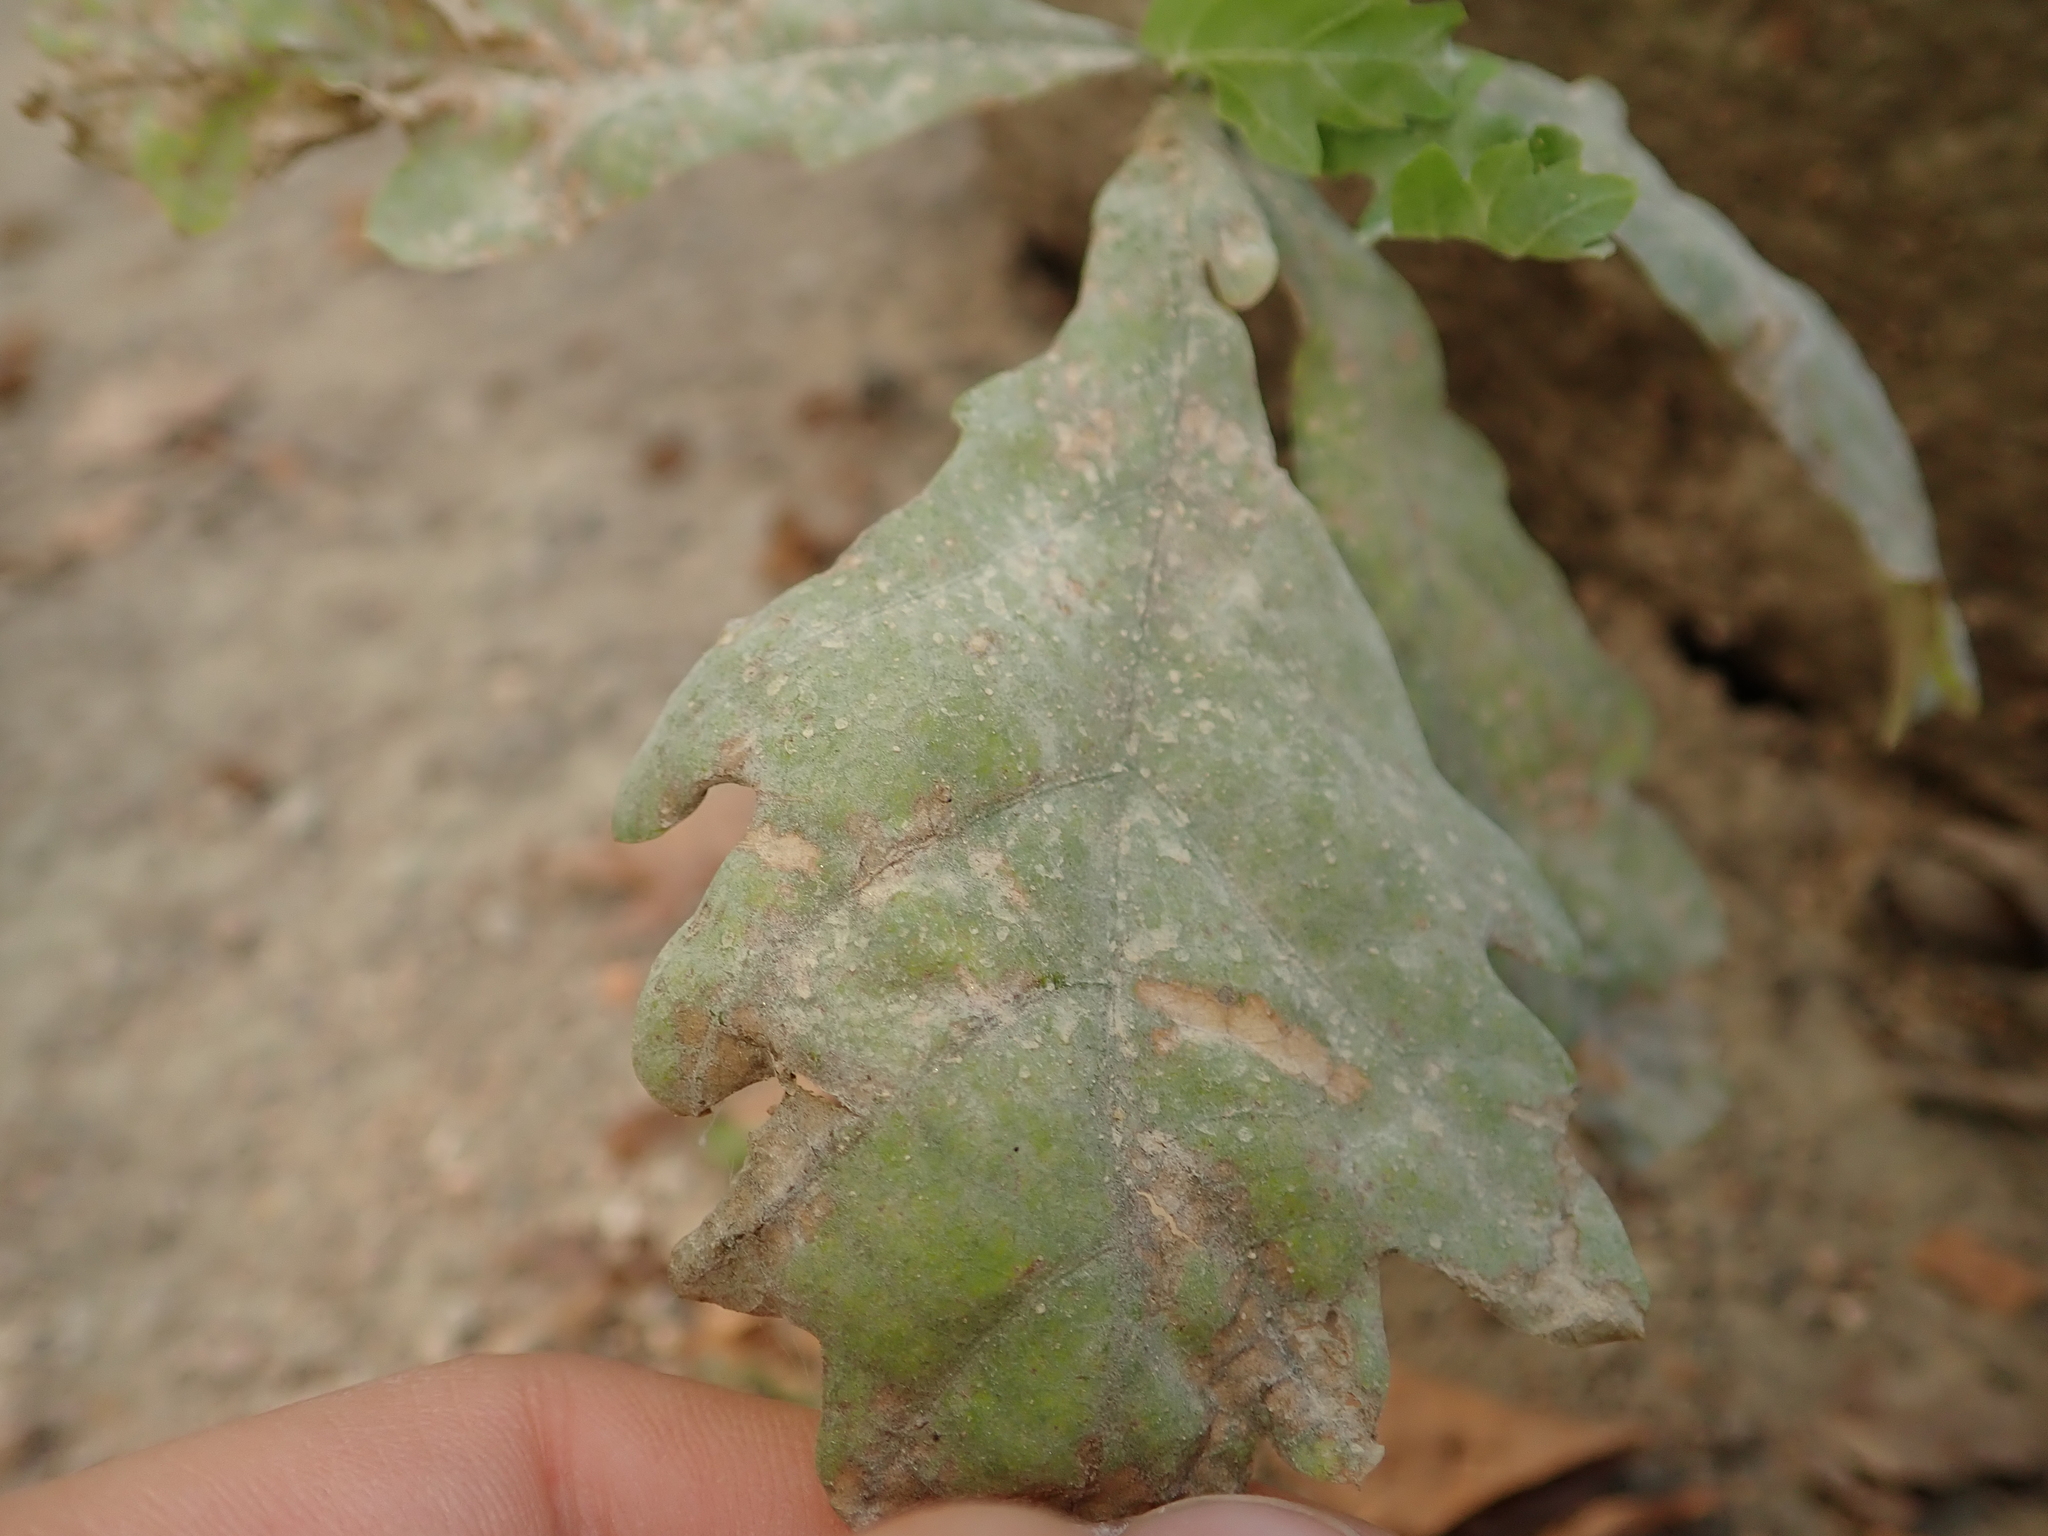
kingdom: Fungi
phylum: Ascomycota
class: Leotiomycetes
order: Helotiales
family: Erysiphaceae
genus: Erysiphe
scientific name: Erysiphe
